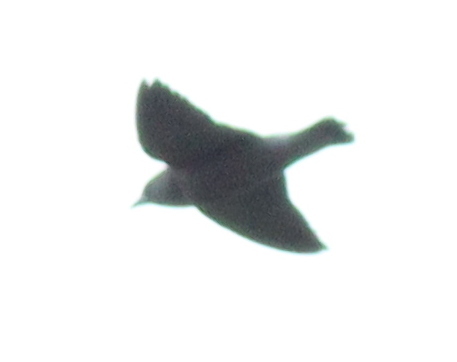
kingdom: Animalia
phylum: Chordata
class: Aves
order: Passeriformes
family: Artamidae
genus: Artamus
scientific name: Artamus fuscus
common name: Ashy woodswallow
